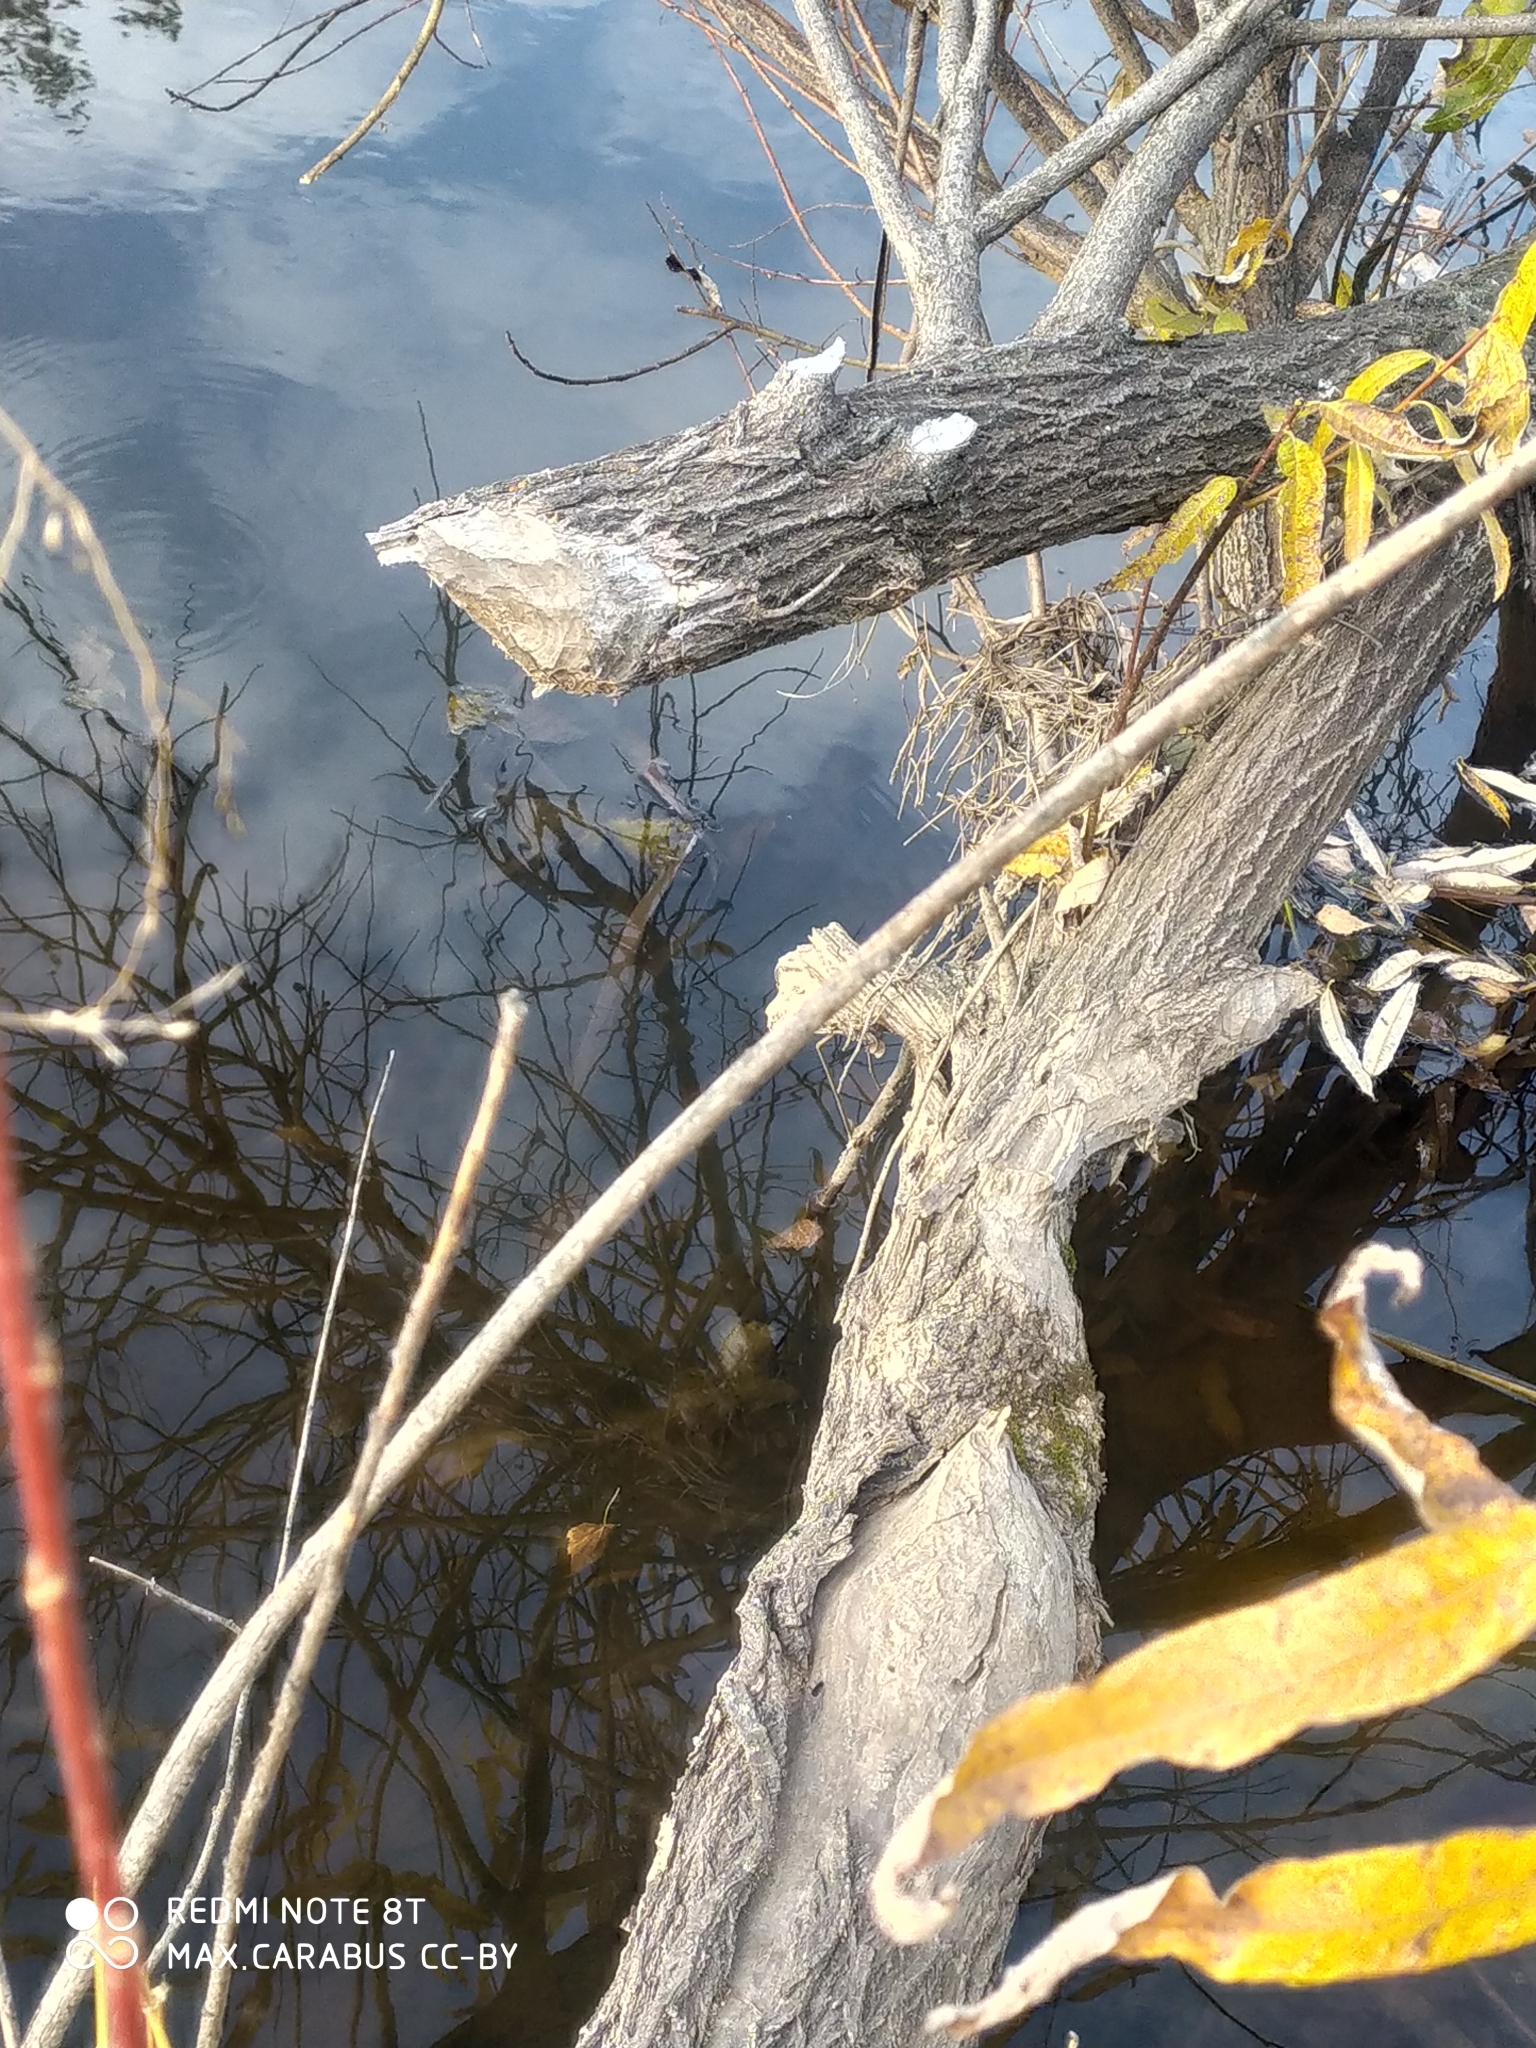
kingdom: Animalia
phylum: Chordata
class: Mammalia
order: Rodentia
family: Castoridae
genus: Castor
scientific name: Castor fiber
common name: Eurasian beaver
